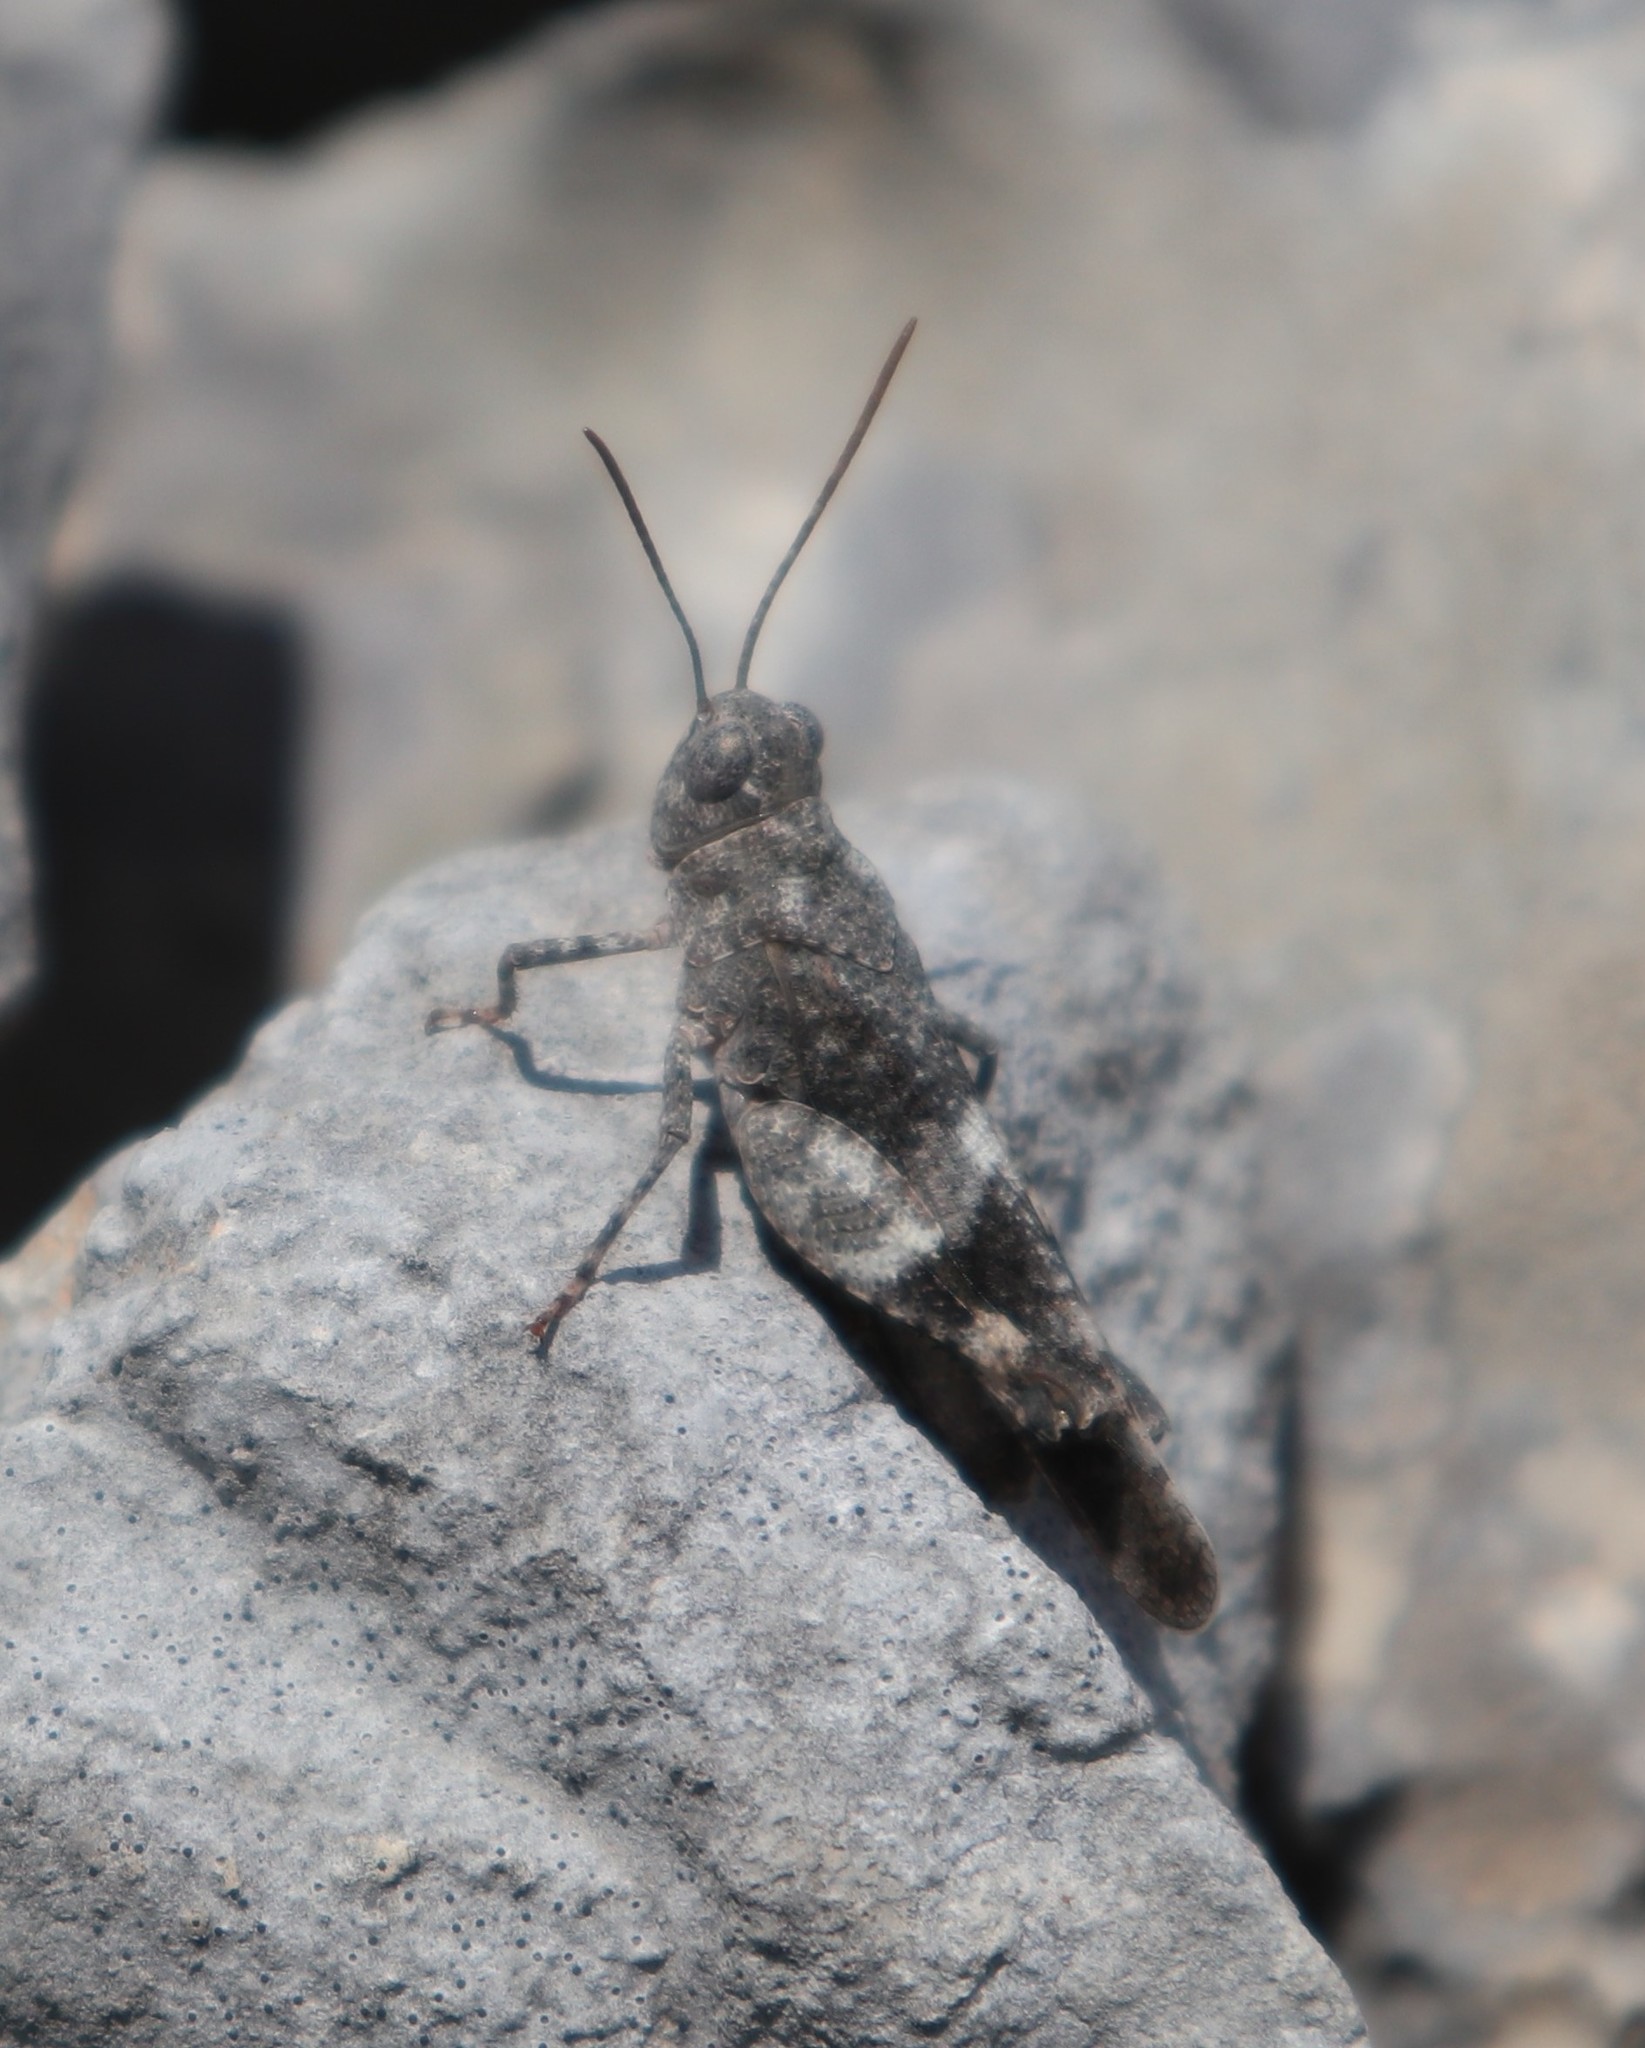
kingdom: Animalia
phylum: Arthropoda
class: Insecta
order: Orthoptera
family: Acrididae
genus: Oedipoda
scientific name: Oedipoda germanica
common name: Red band-winged grasshopper
